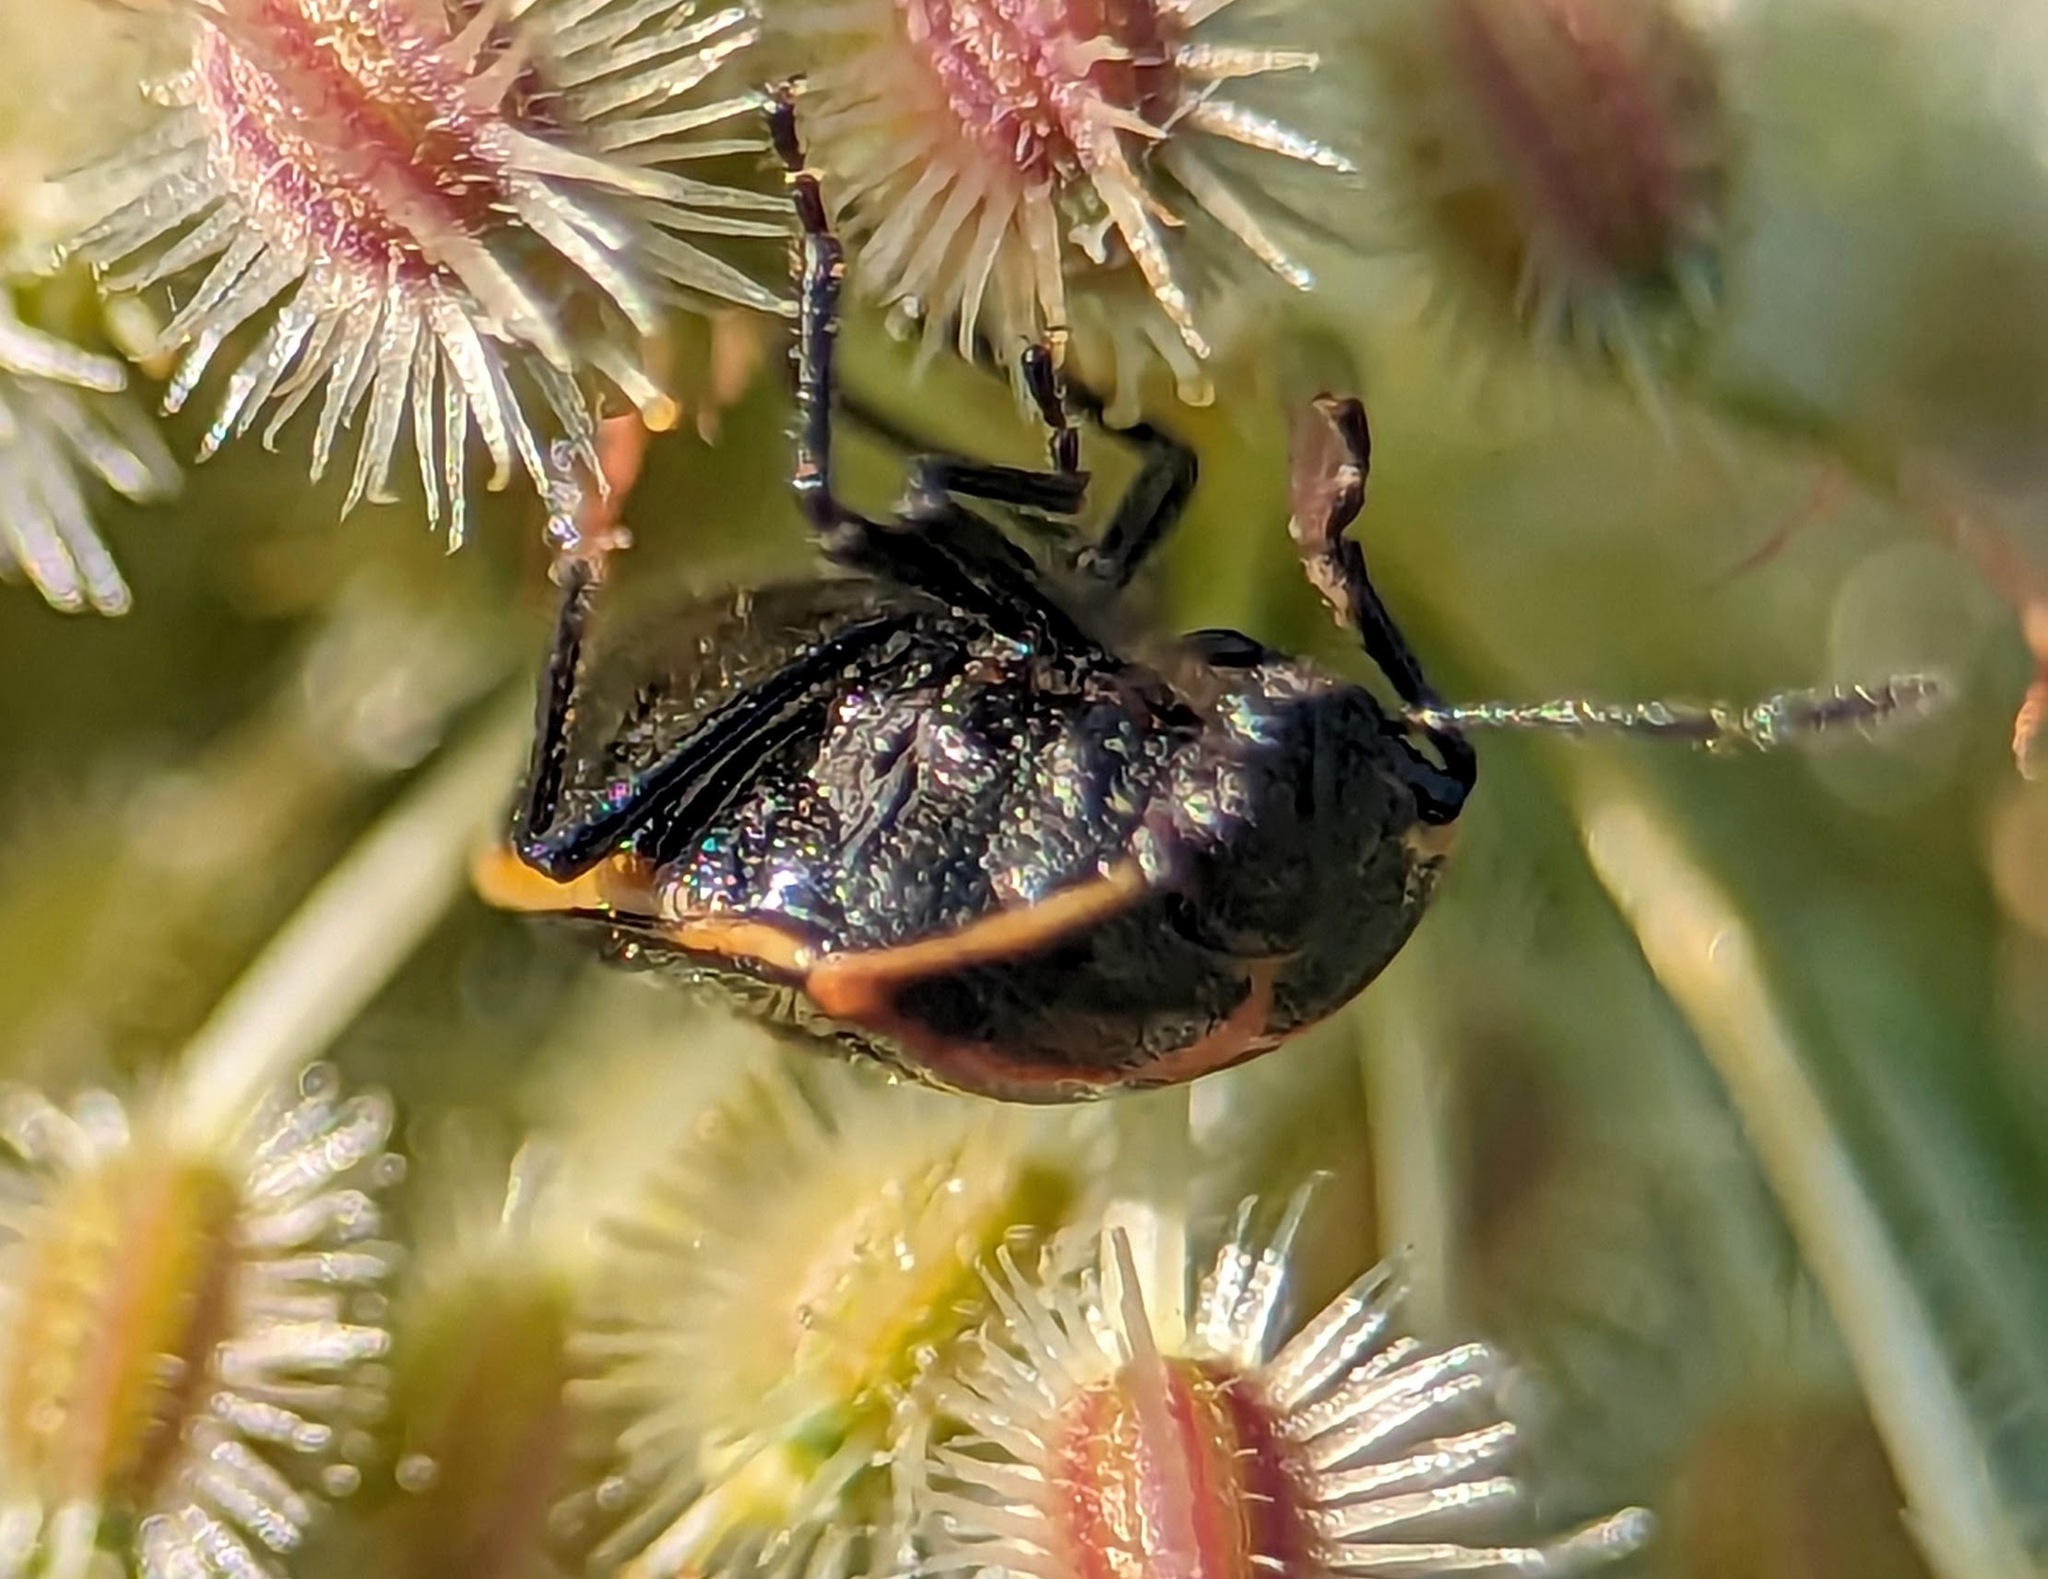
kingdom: Animalia
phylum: Arthropoda
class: Insecta
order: Hemiptera
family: Pentatomidae
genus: Cosmopepla
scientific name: Cosmopepla lintneriana
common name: Twice-stabbed stink bug
